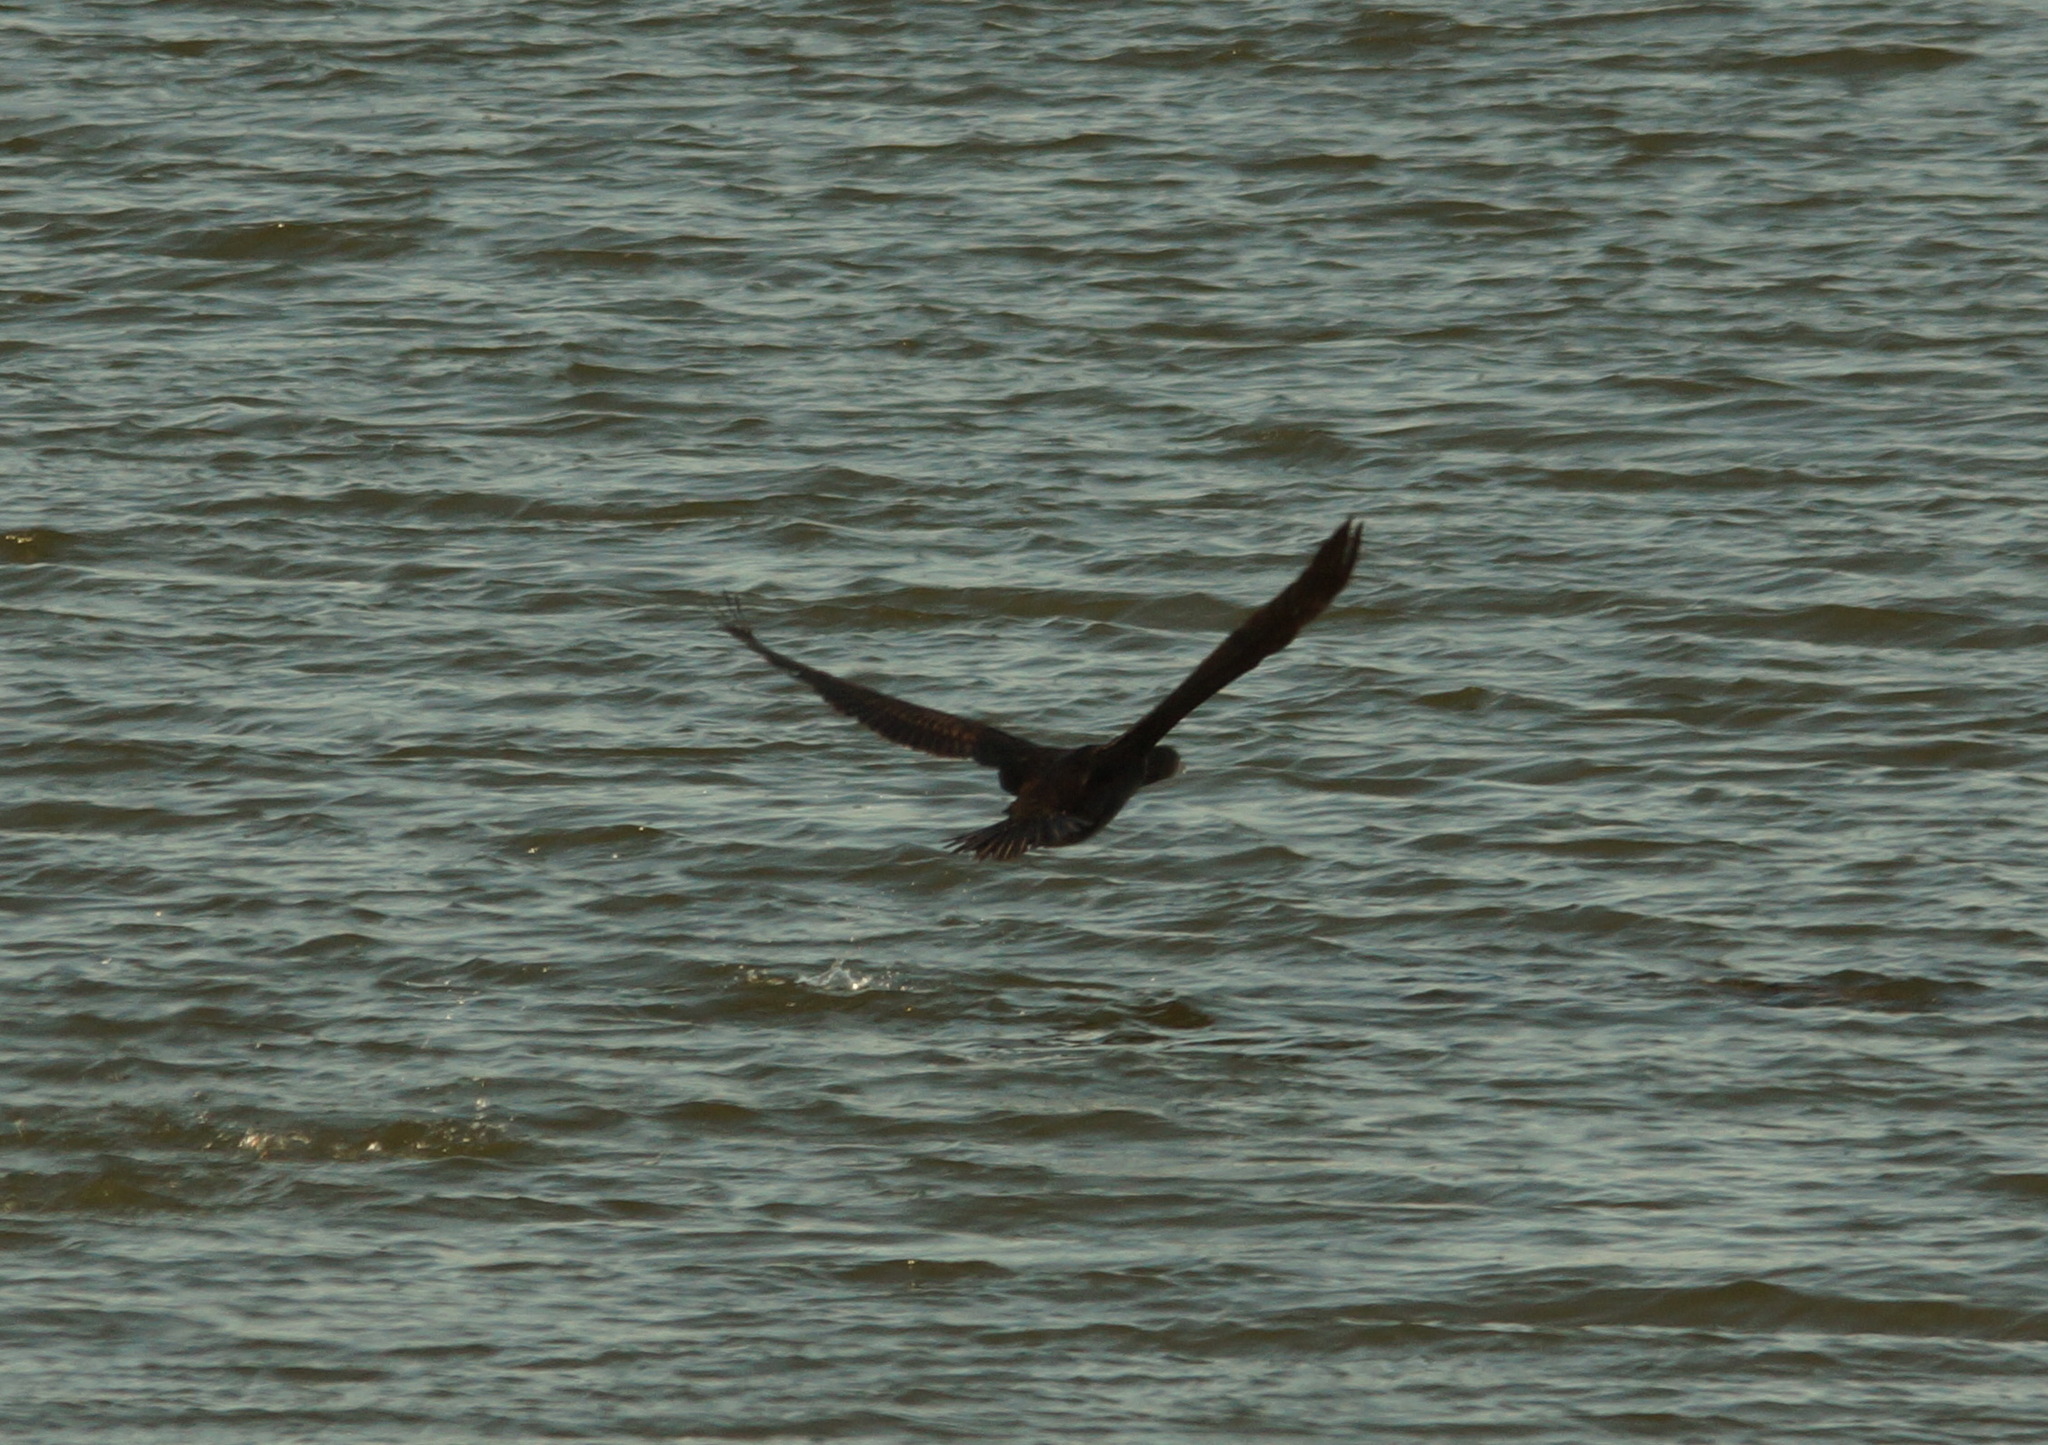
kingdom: Animalia
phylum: Chordata
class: Aves
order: Suliformes
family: Phalacrocoracidae
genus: Phalacrocorax
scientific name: Phalacrocorax carbo
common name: Great cormorant
